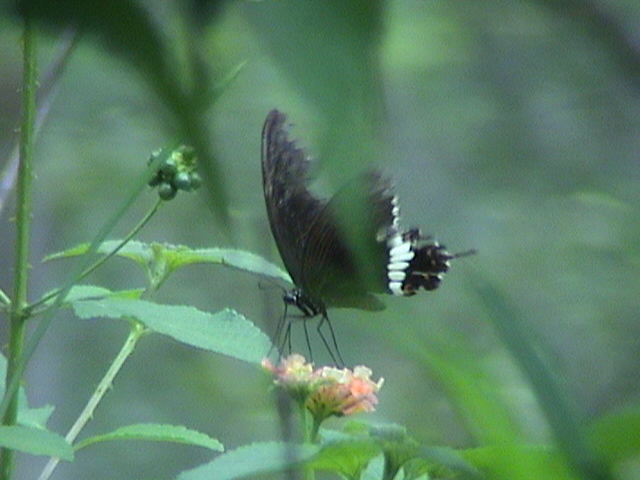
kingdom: Animalia
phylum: Arthropoda
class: Insecta
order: Lepidoptera
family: Papilionidae
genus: Papilio
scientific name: Papilio polytes
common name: Common mormon
